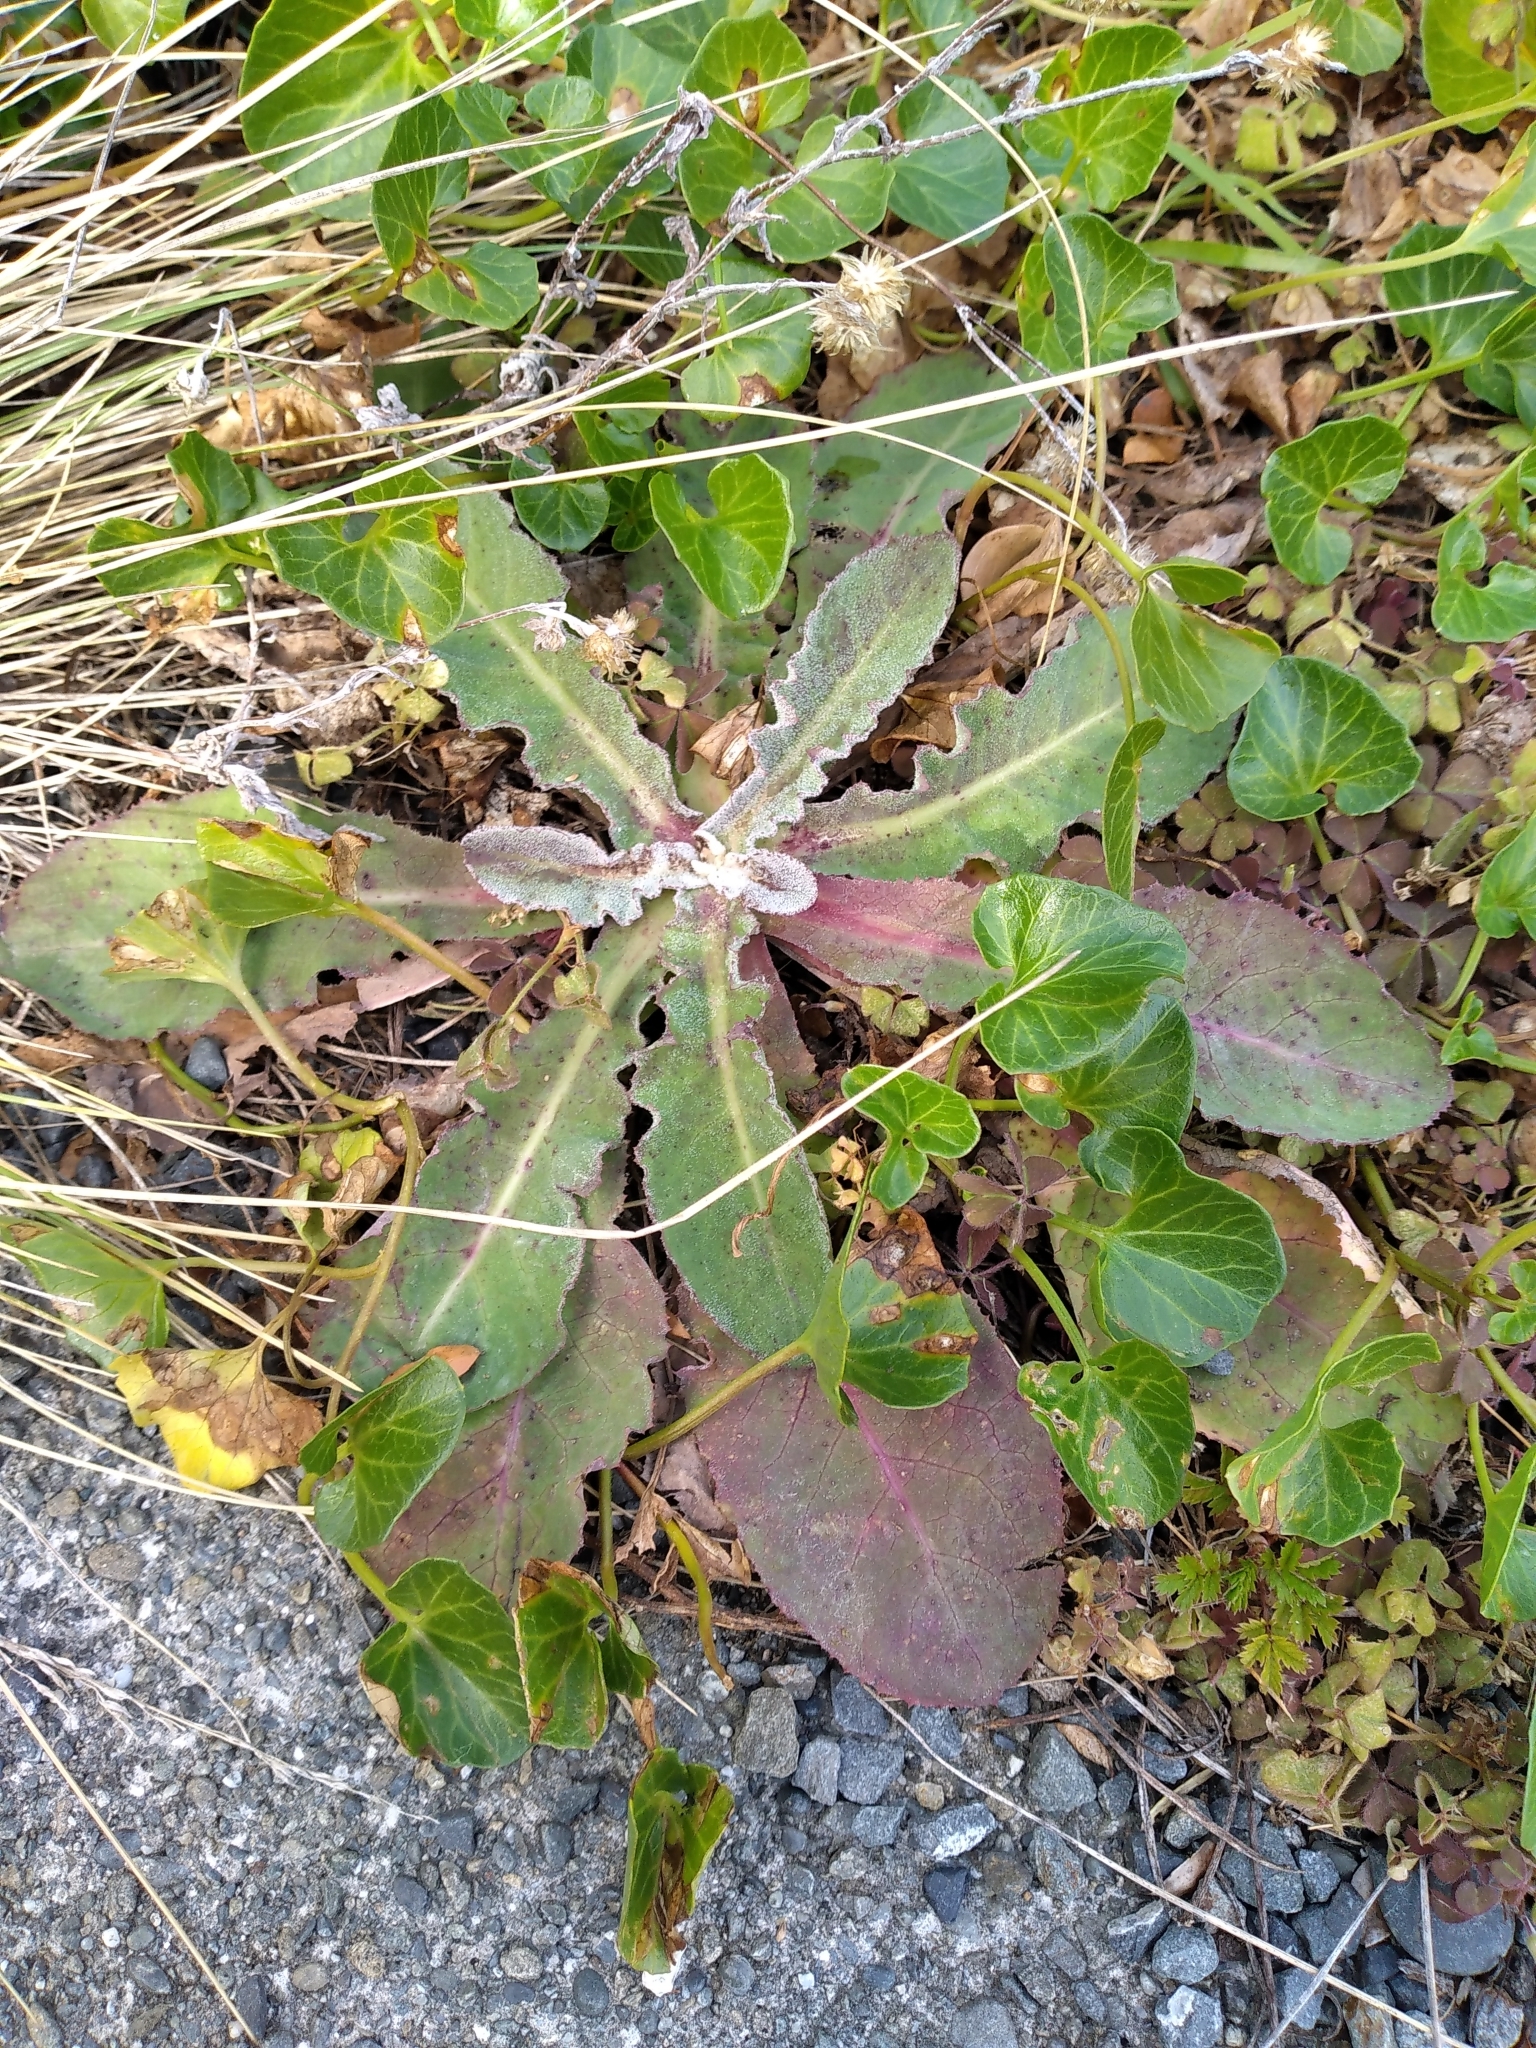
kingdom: Plantae
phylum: Tracheophyta
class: Magnoliopsida
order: Asterales
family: Asteraceae
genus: Sonchus
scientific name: Sonchus kirkii
